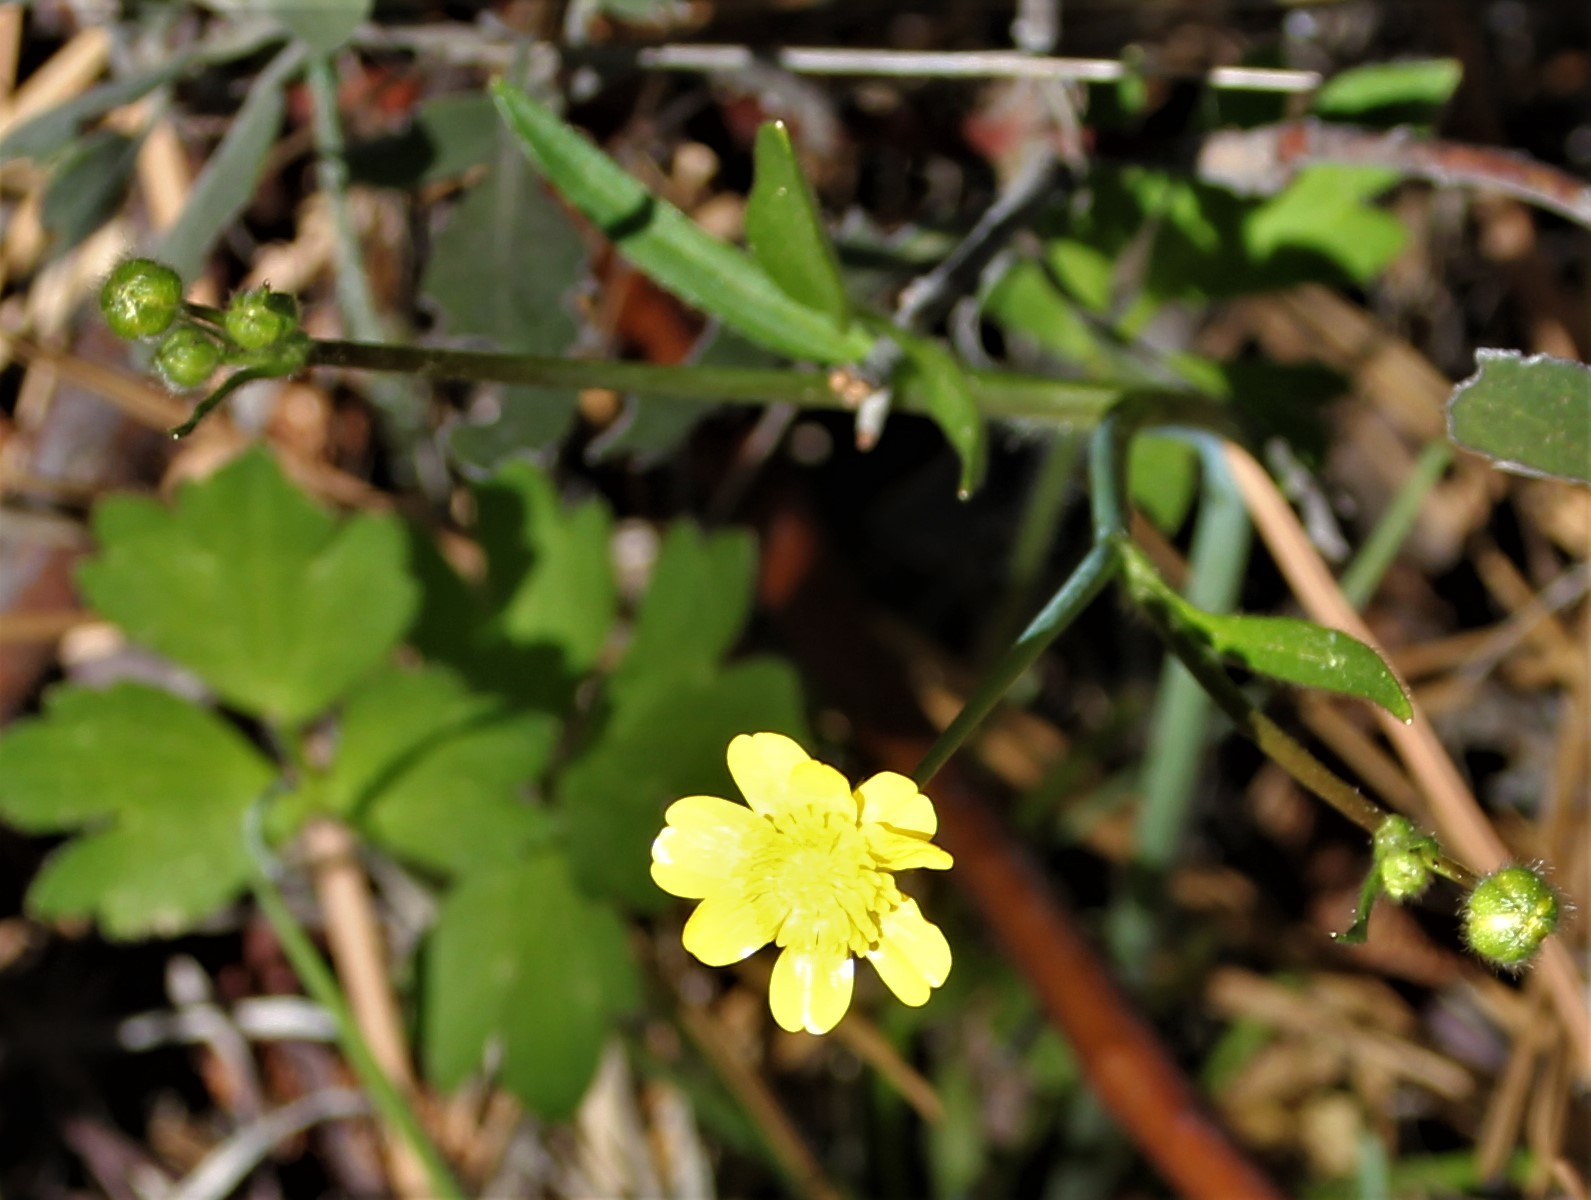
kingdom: Plantae
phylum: Tracheophyta
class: Magnoliopsida
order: Ranunculales
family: Ranunculaceae
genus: Ranunculus
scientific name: Ranunculus californicus
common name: California buttercup
